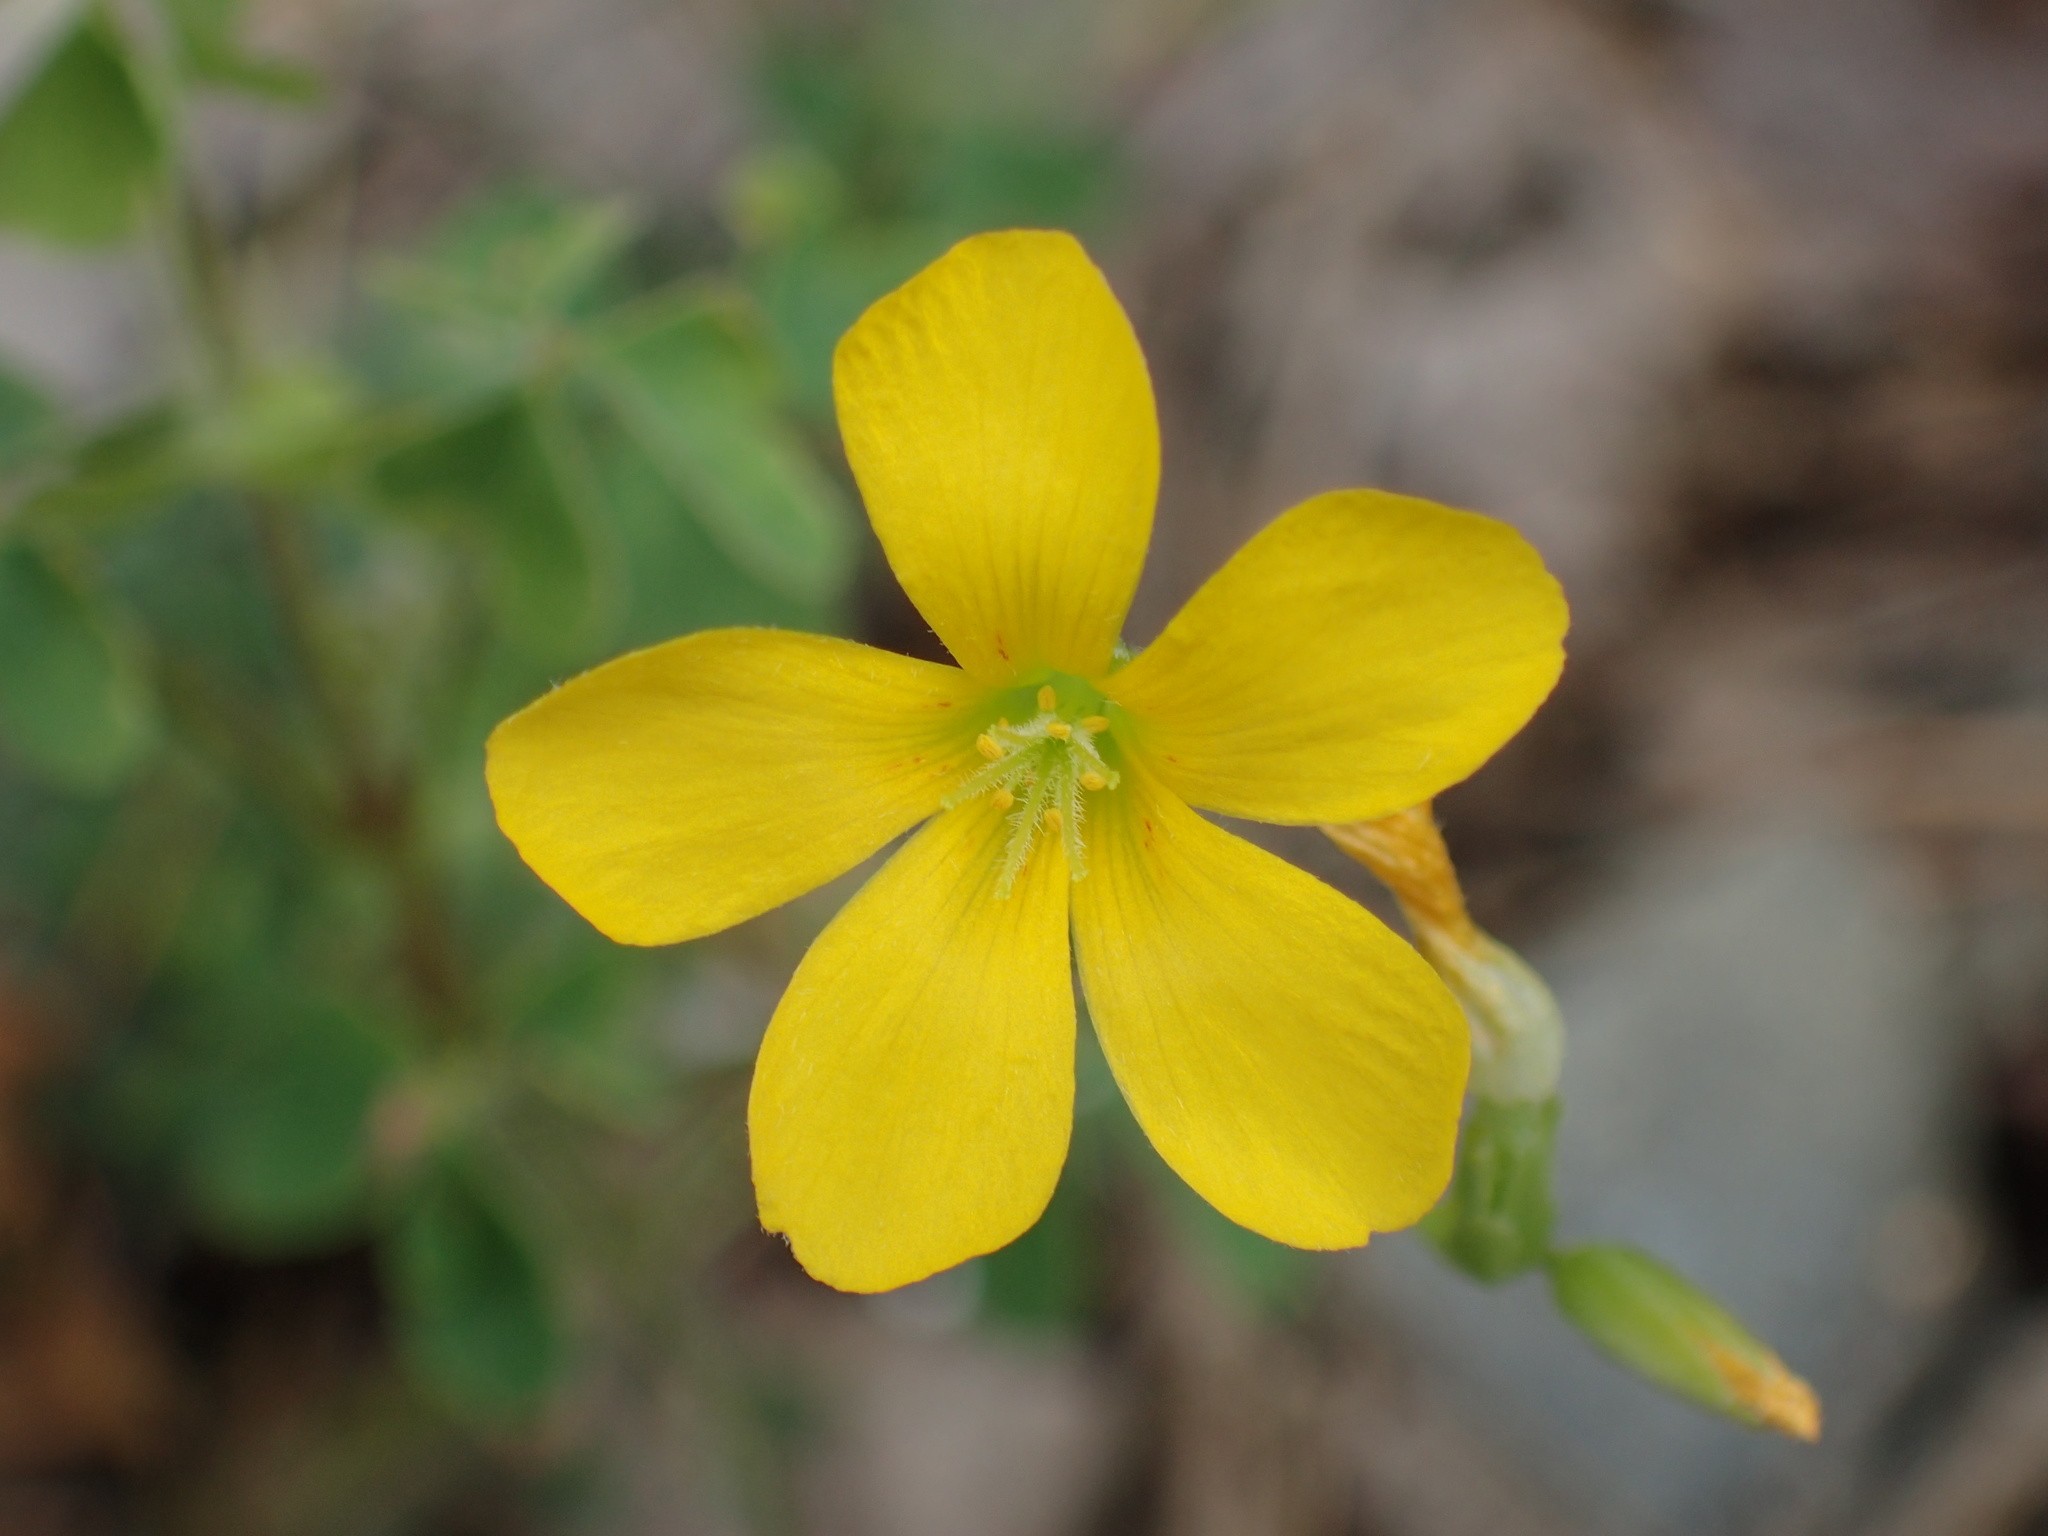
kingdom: Plantae
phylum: Tracheophyta
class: Magnoliopsida
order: Oxalidales
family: Oxalidaceae
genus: Oxalis
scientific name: Oxalis
